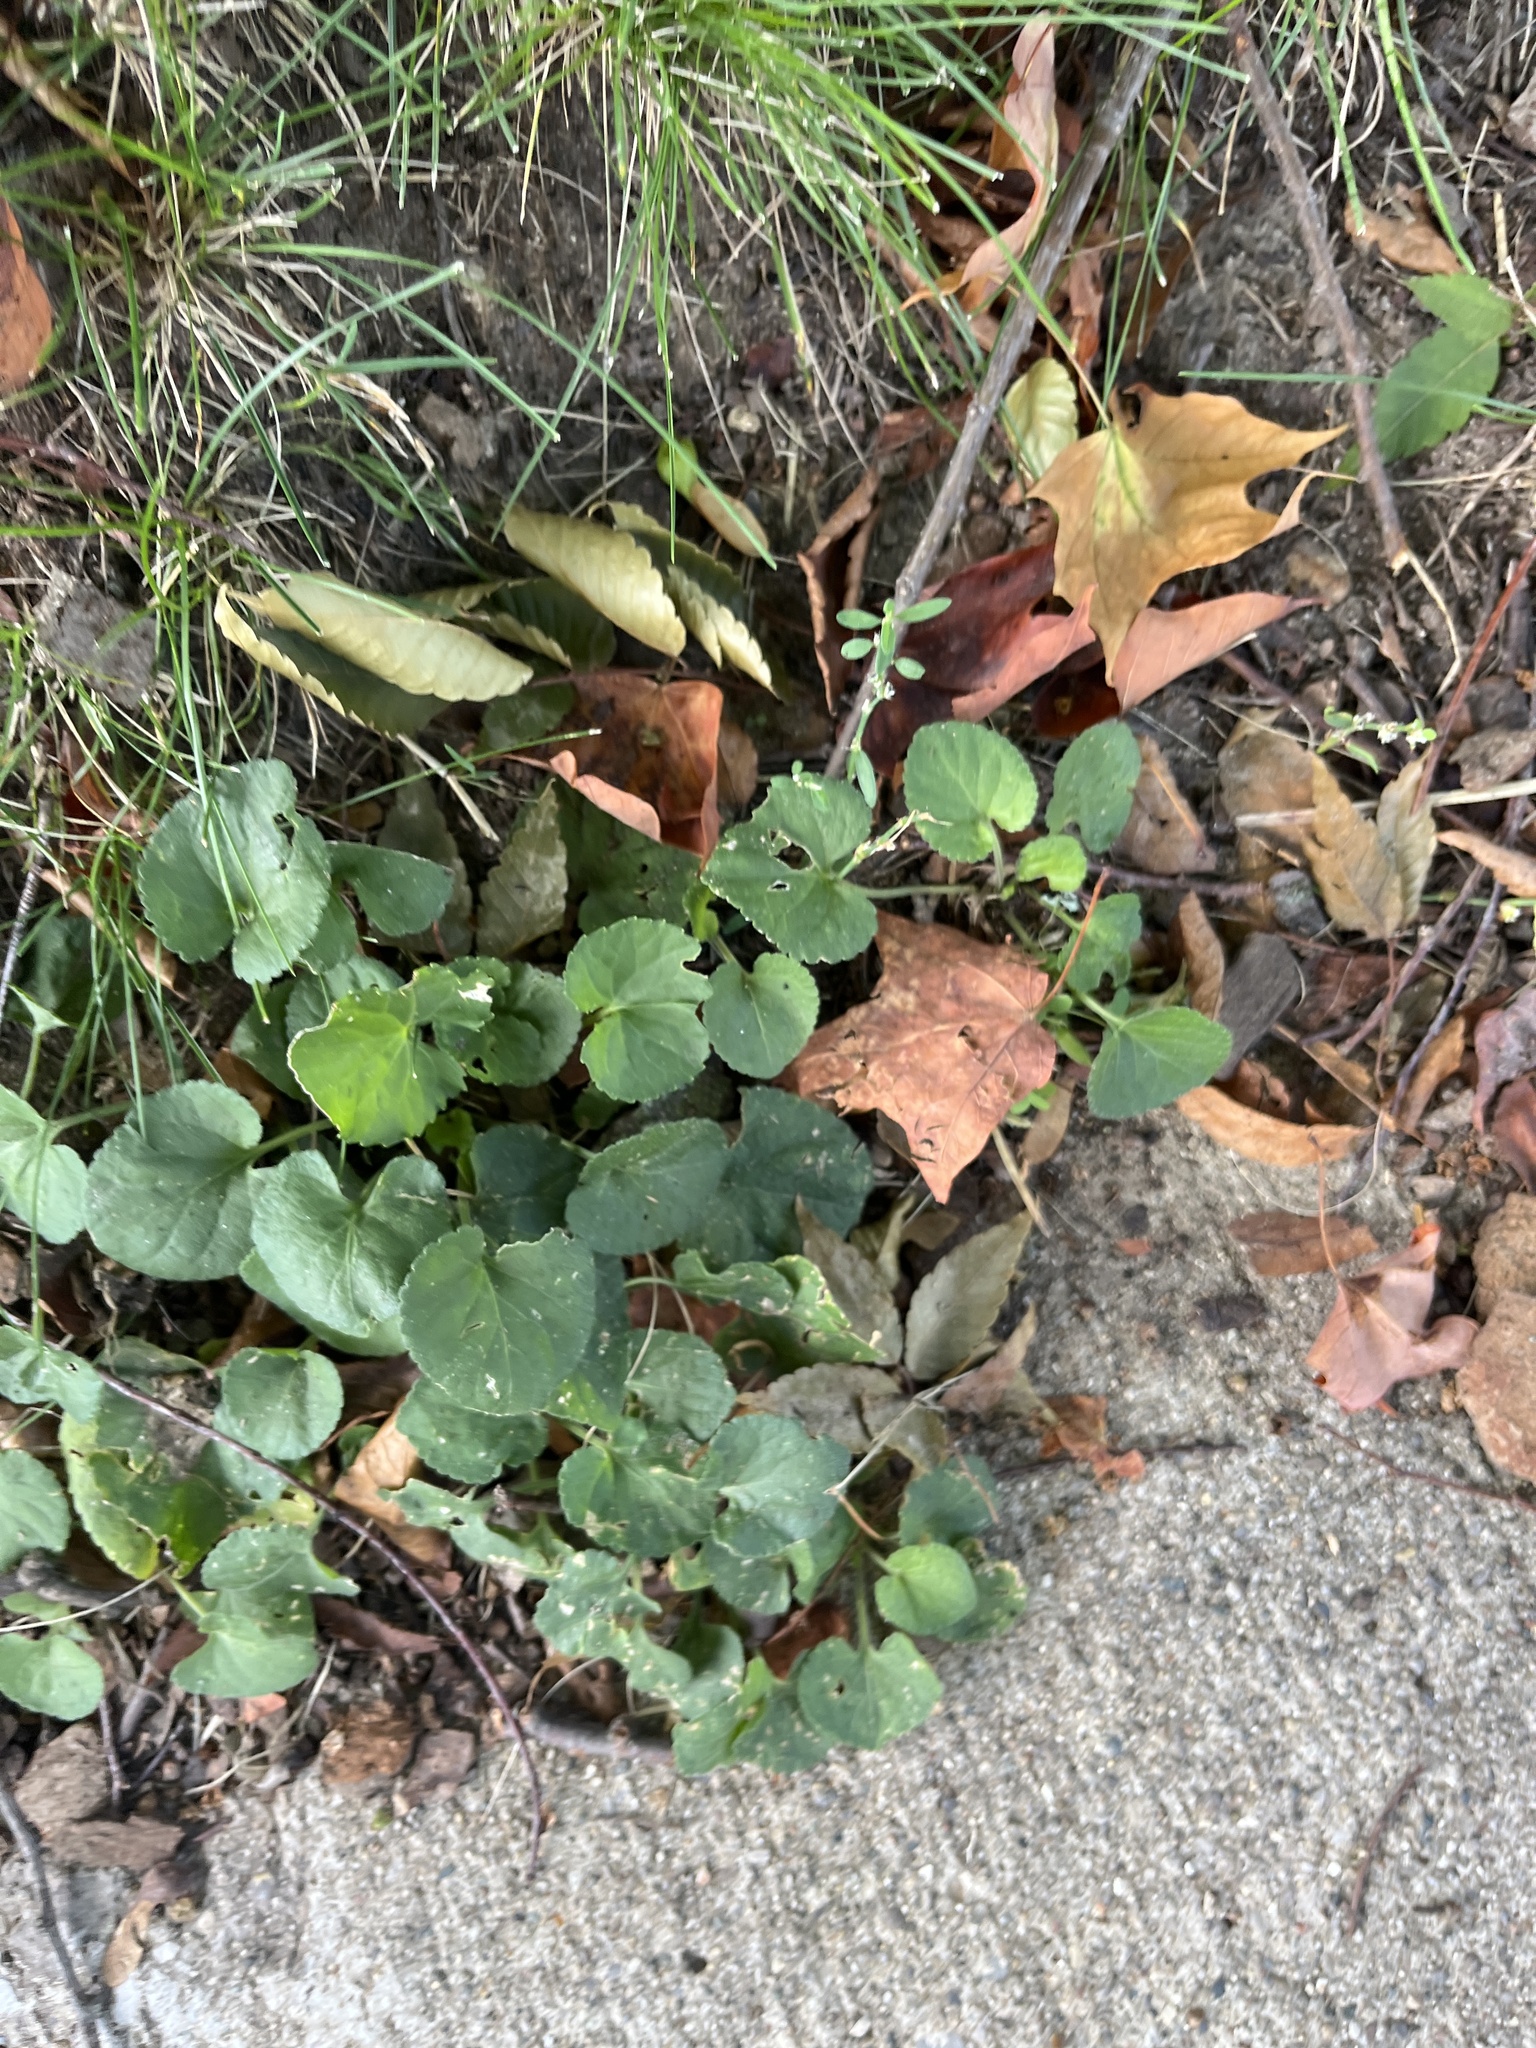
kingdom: Plantae
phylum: Tracheophyta
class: Magnoliopsida
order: Malpighiales
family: Violaceae
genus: Viola
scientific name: Viola sororia
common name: Dooryard violet
